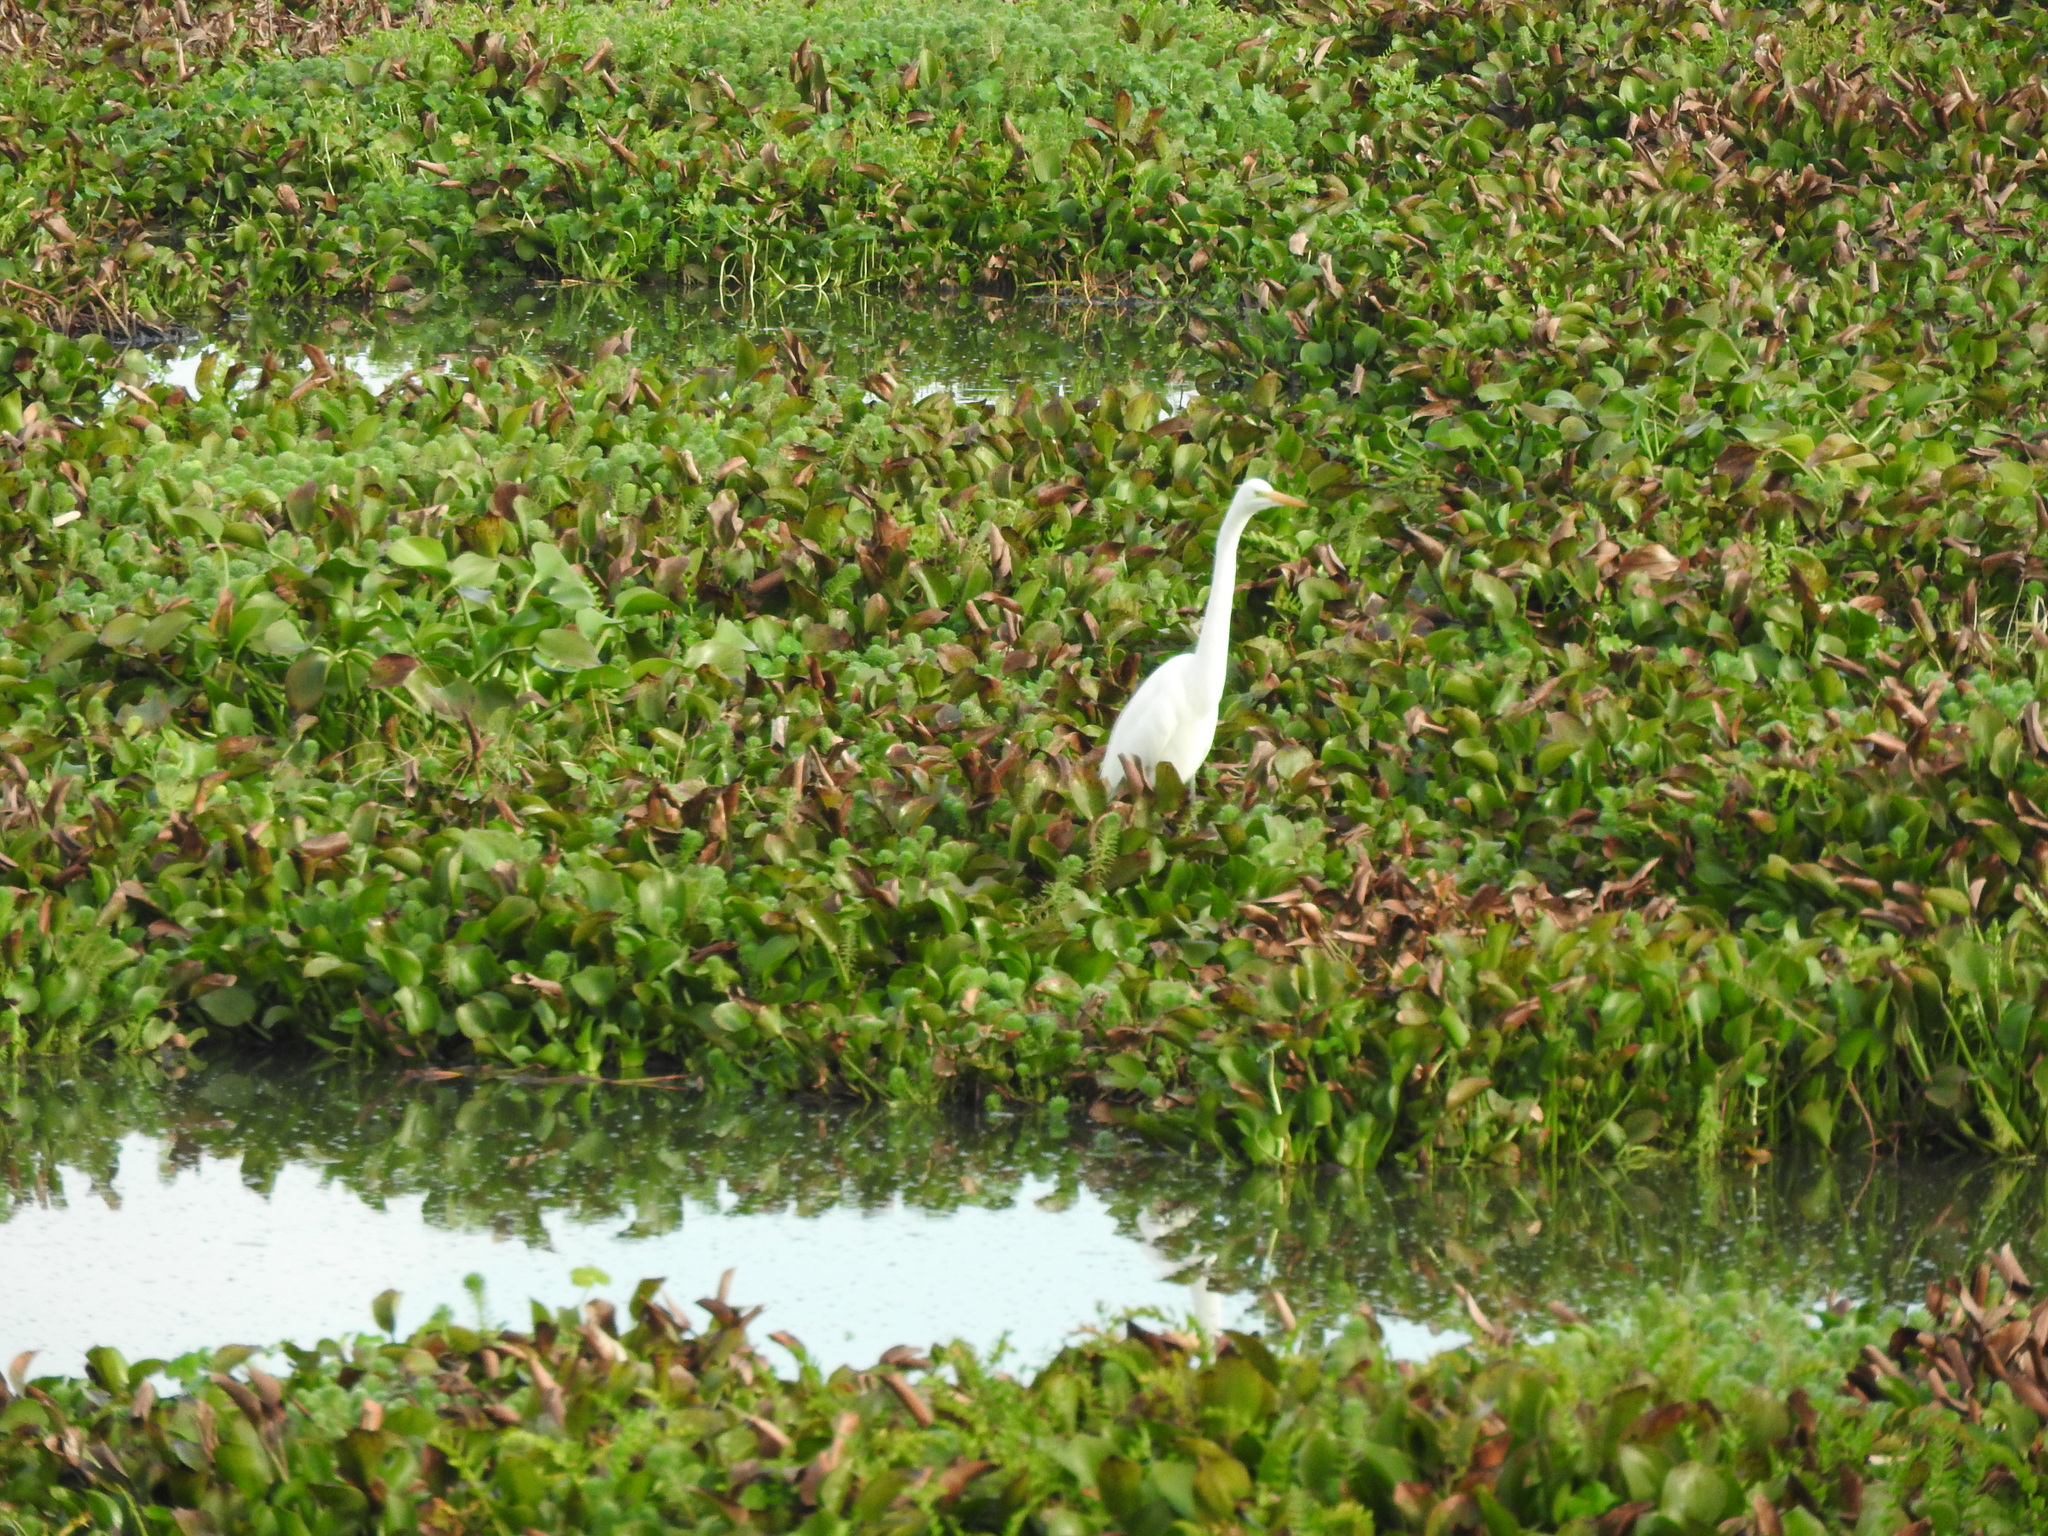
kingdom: Animalia
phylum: Chordata
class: Aves
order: Pelecaniformes
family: Ardeidae
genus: Ardea
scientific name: Ardea alba
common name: Great egret
